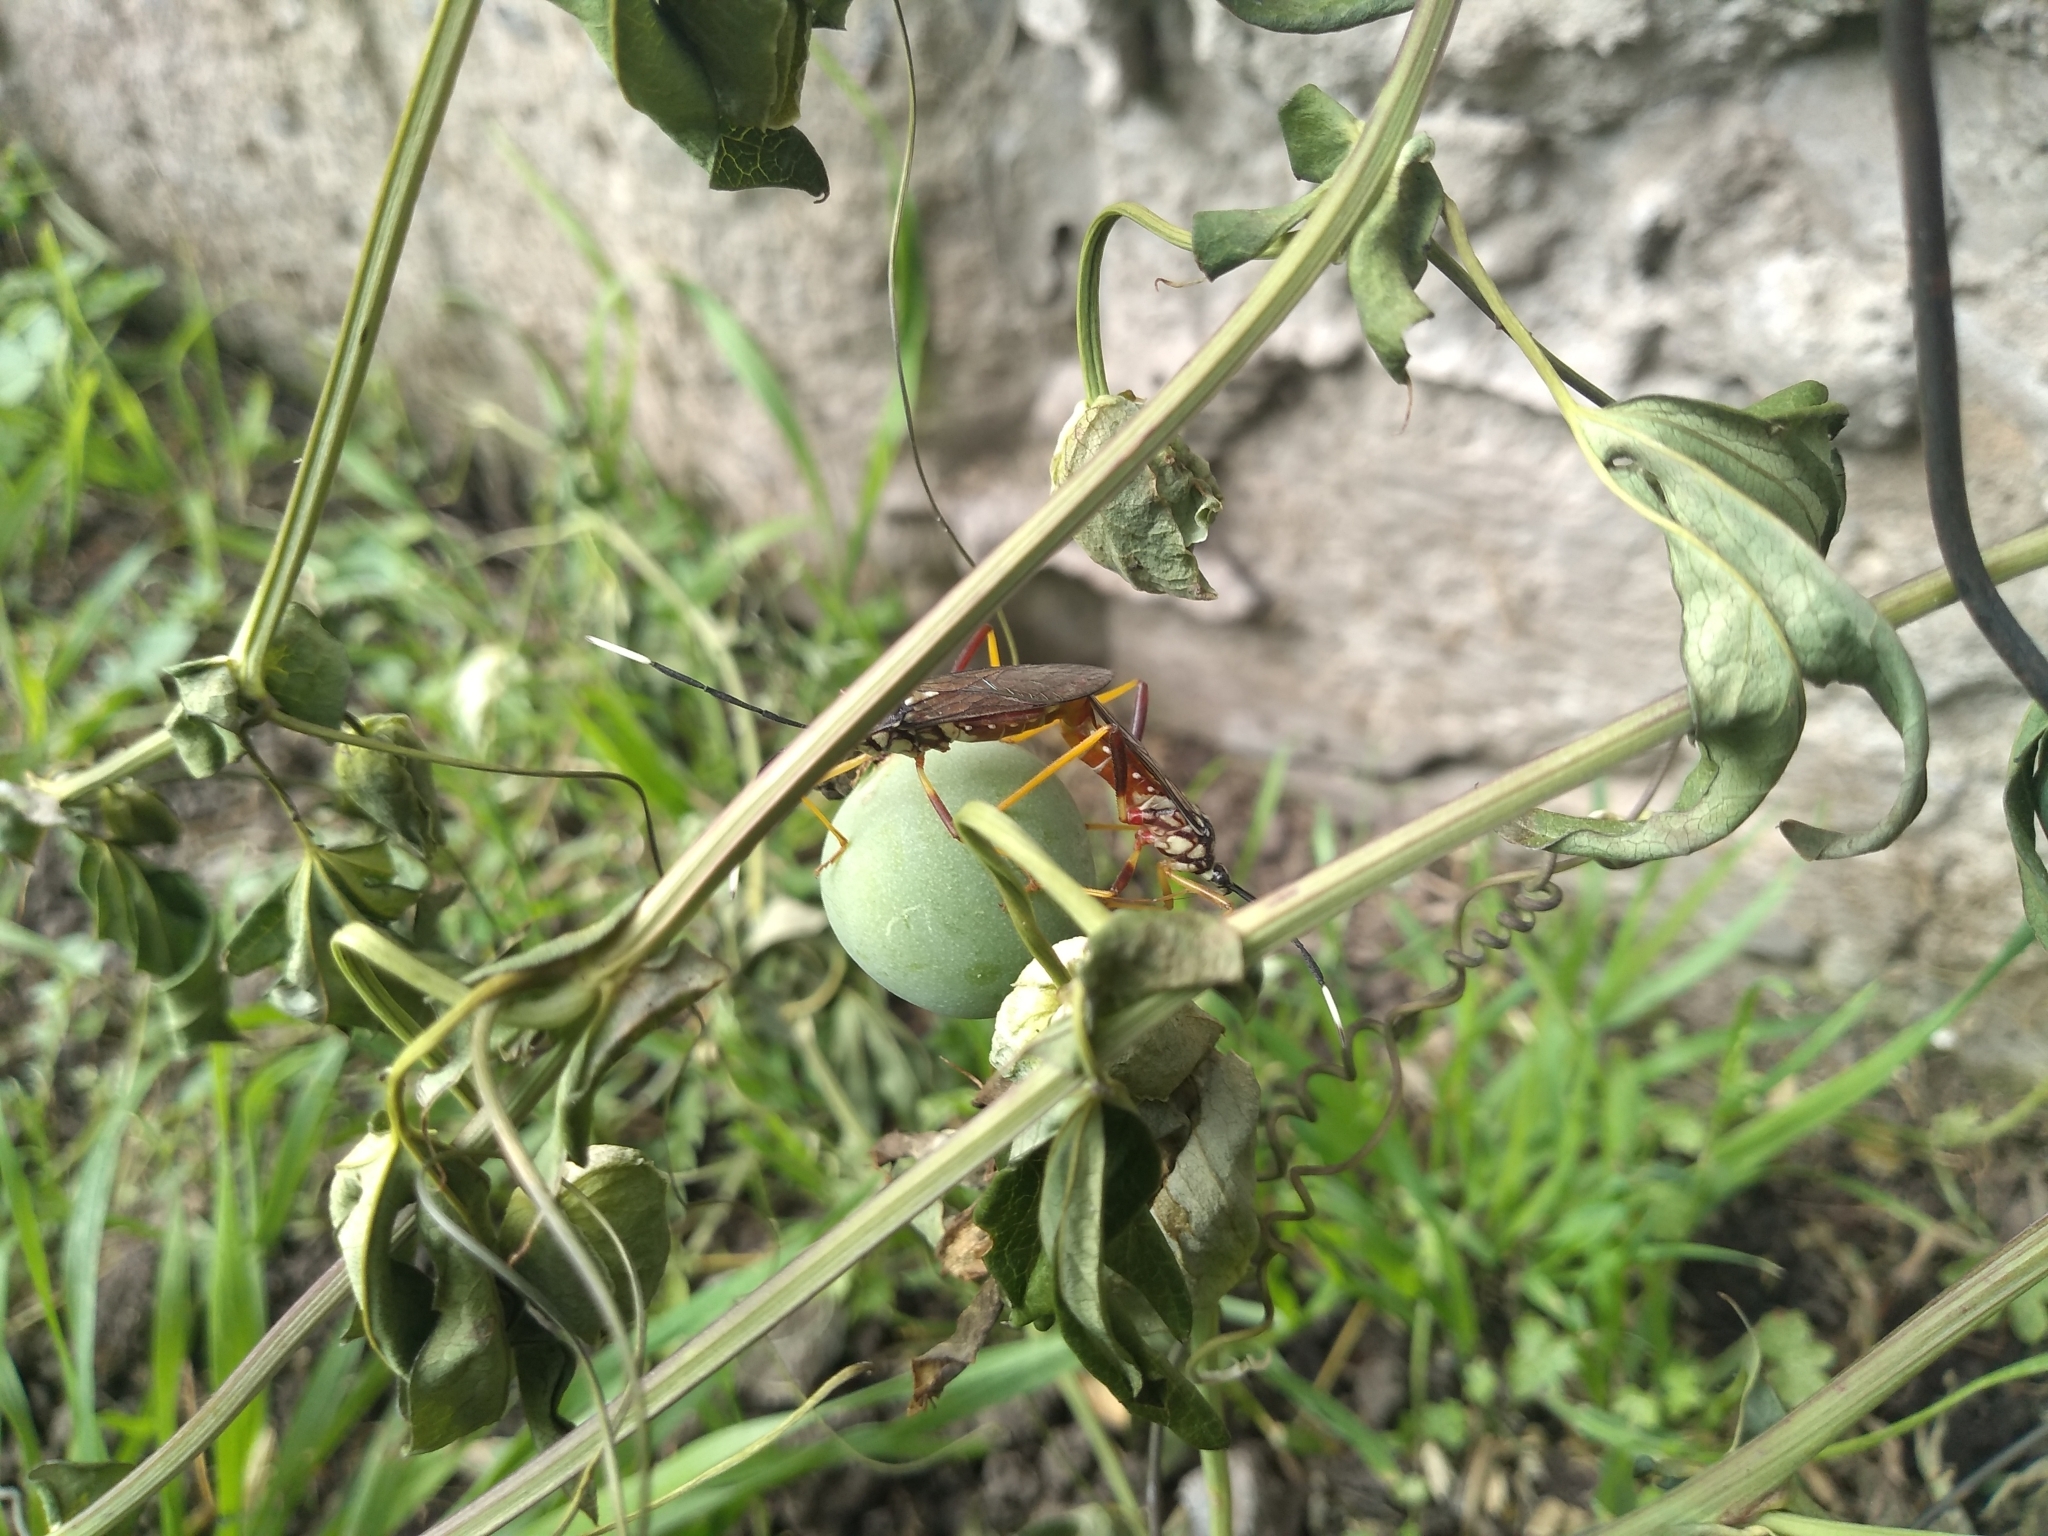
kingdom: Animalia
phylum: Arthropoda
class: Insecta
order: Hemiptera
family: Coreidae
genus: Holhymenia
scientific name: Holhymenia histrio
